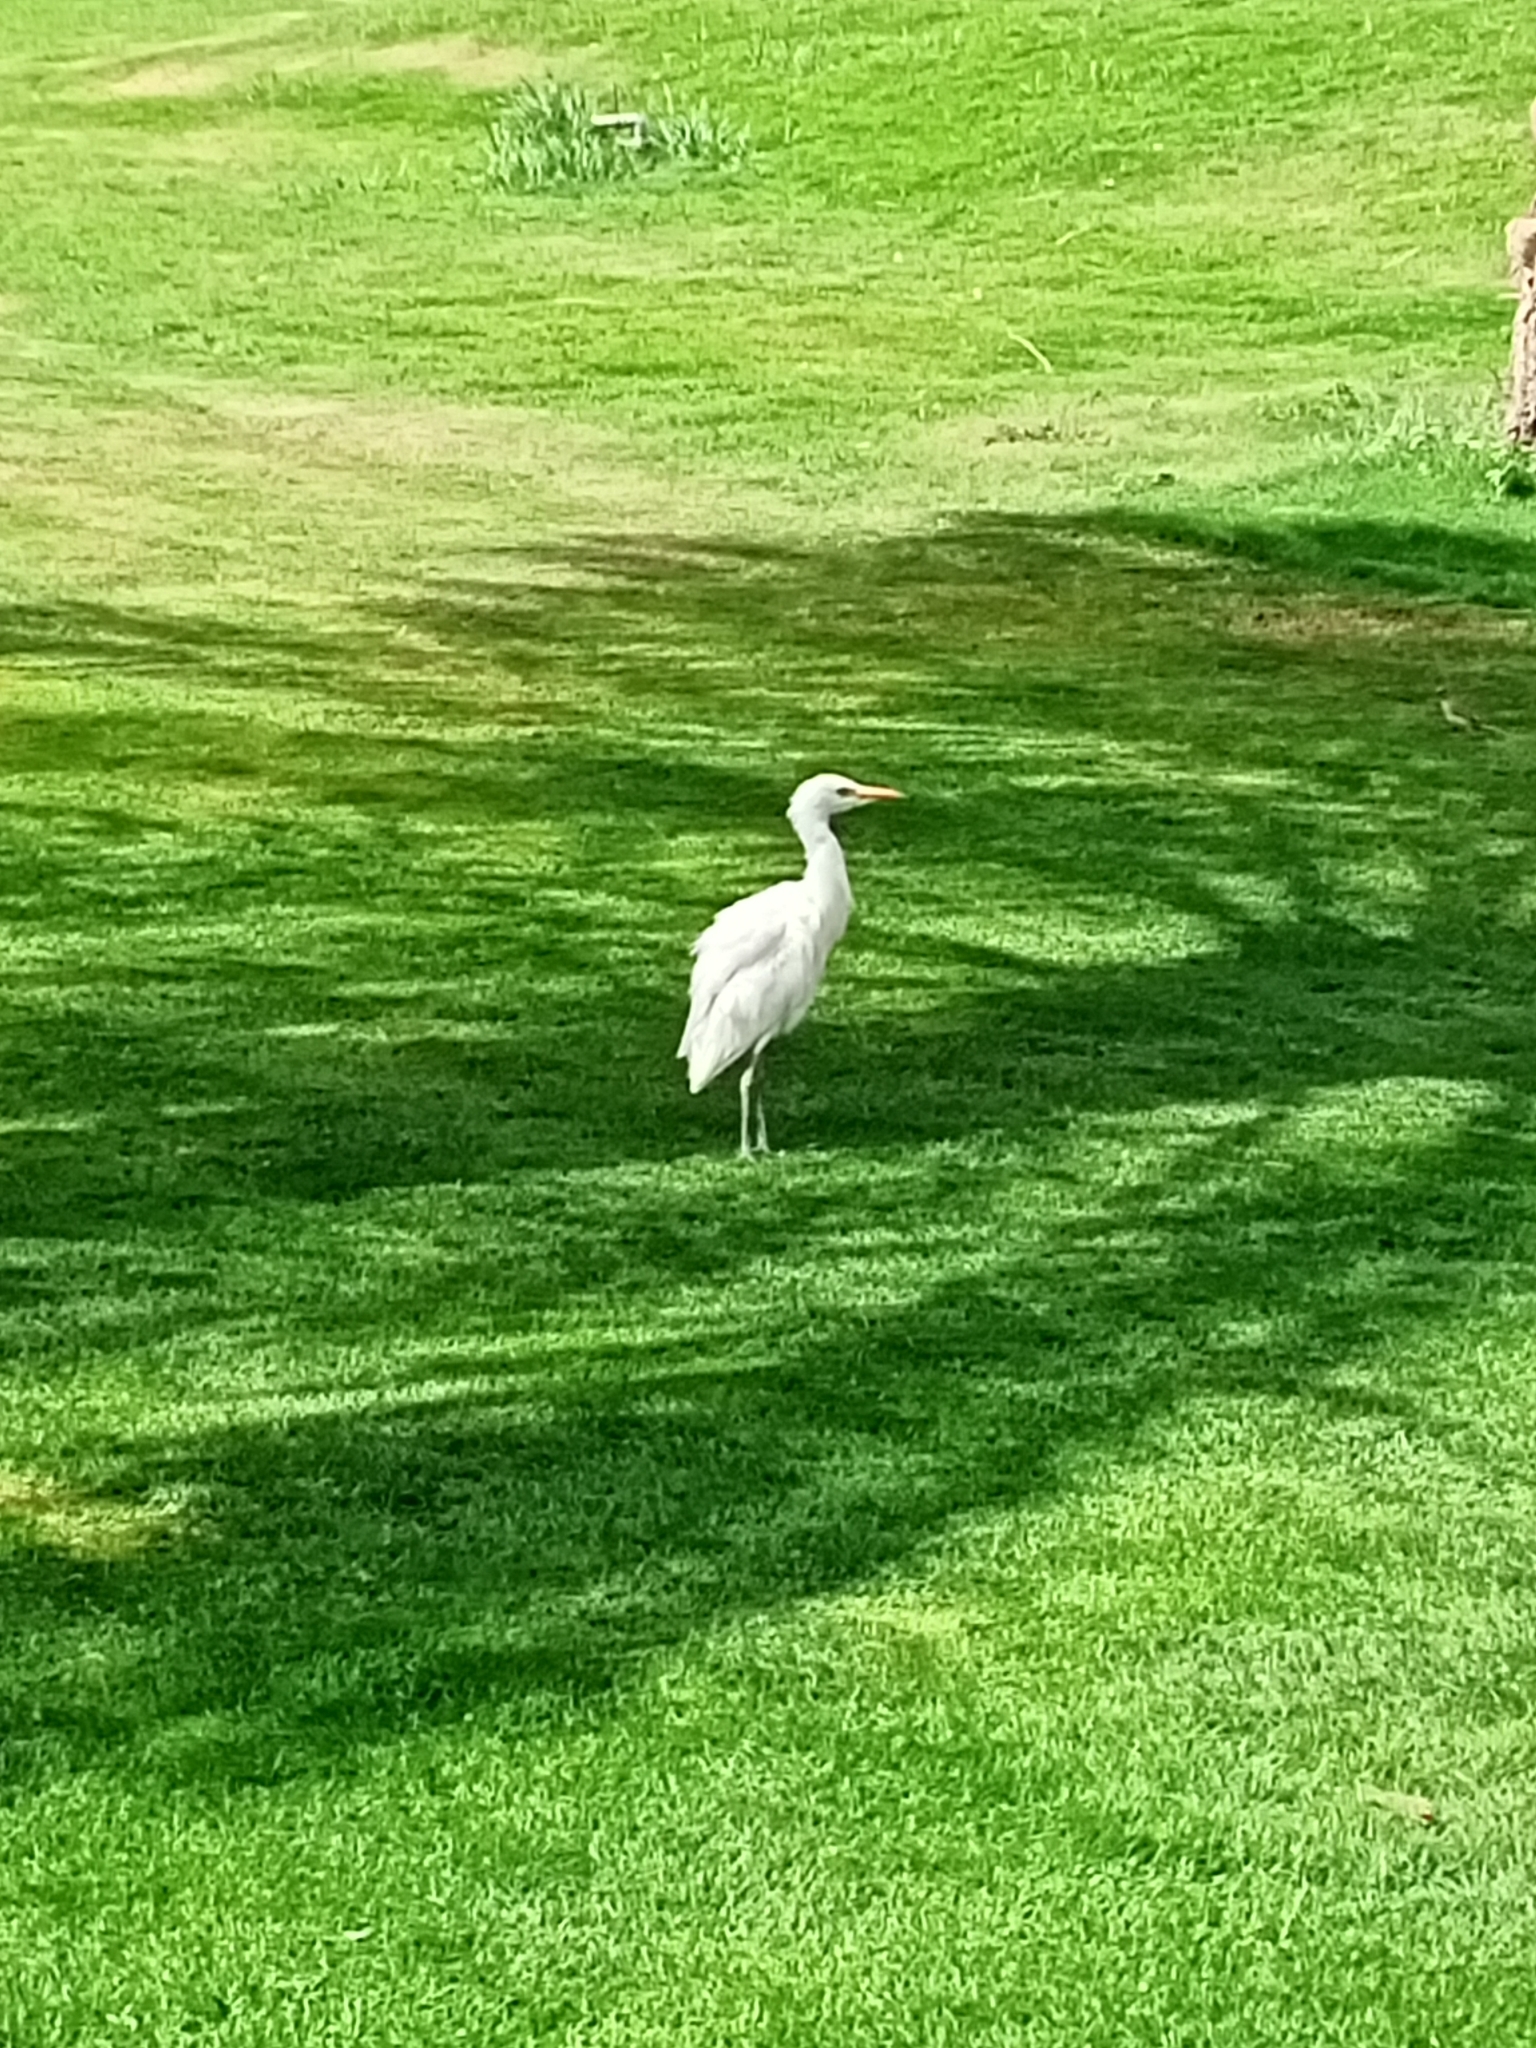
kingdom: Animalia
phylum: Chordata
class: Aves
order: Pelecaniformes
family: Ardeidae
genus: Bubulcus
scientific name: Bubulcus ibis
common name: Cattle egret
